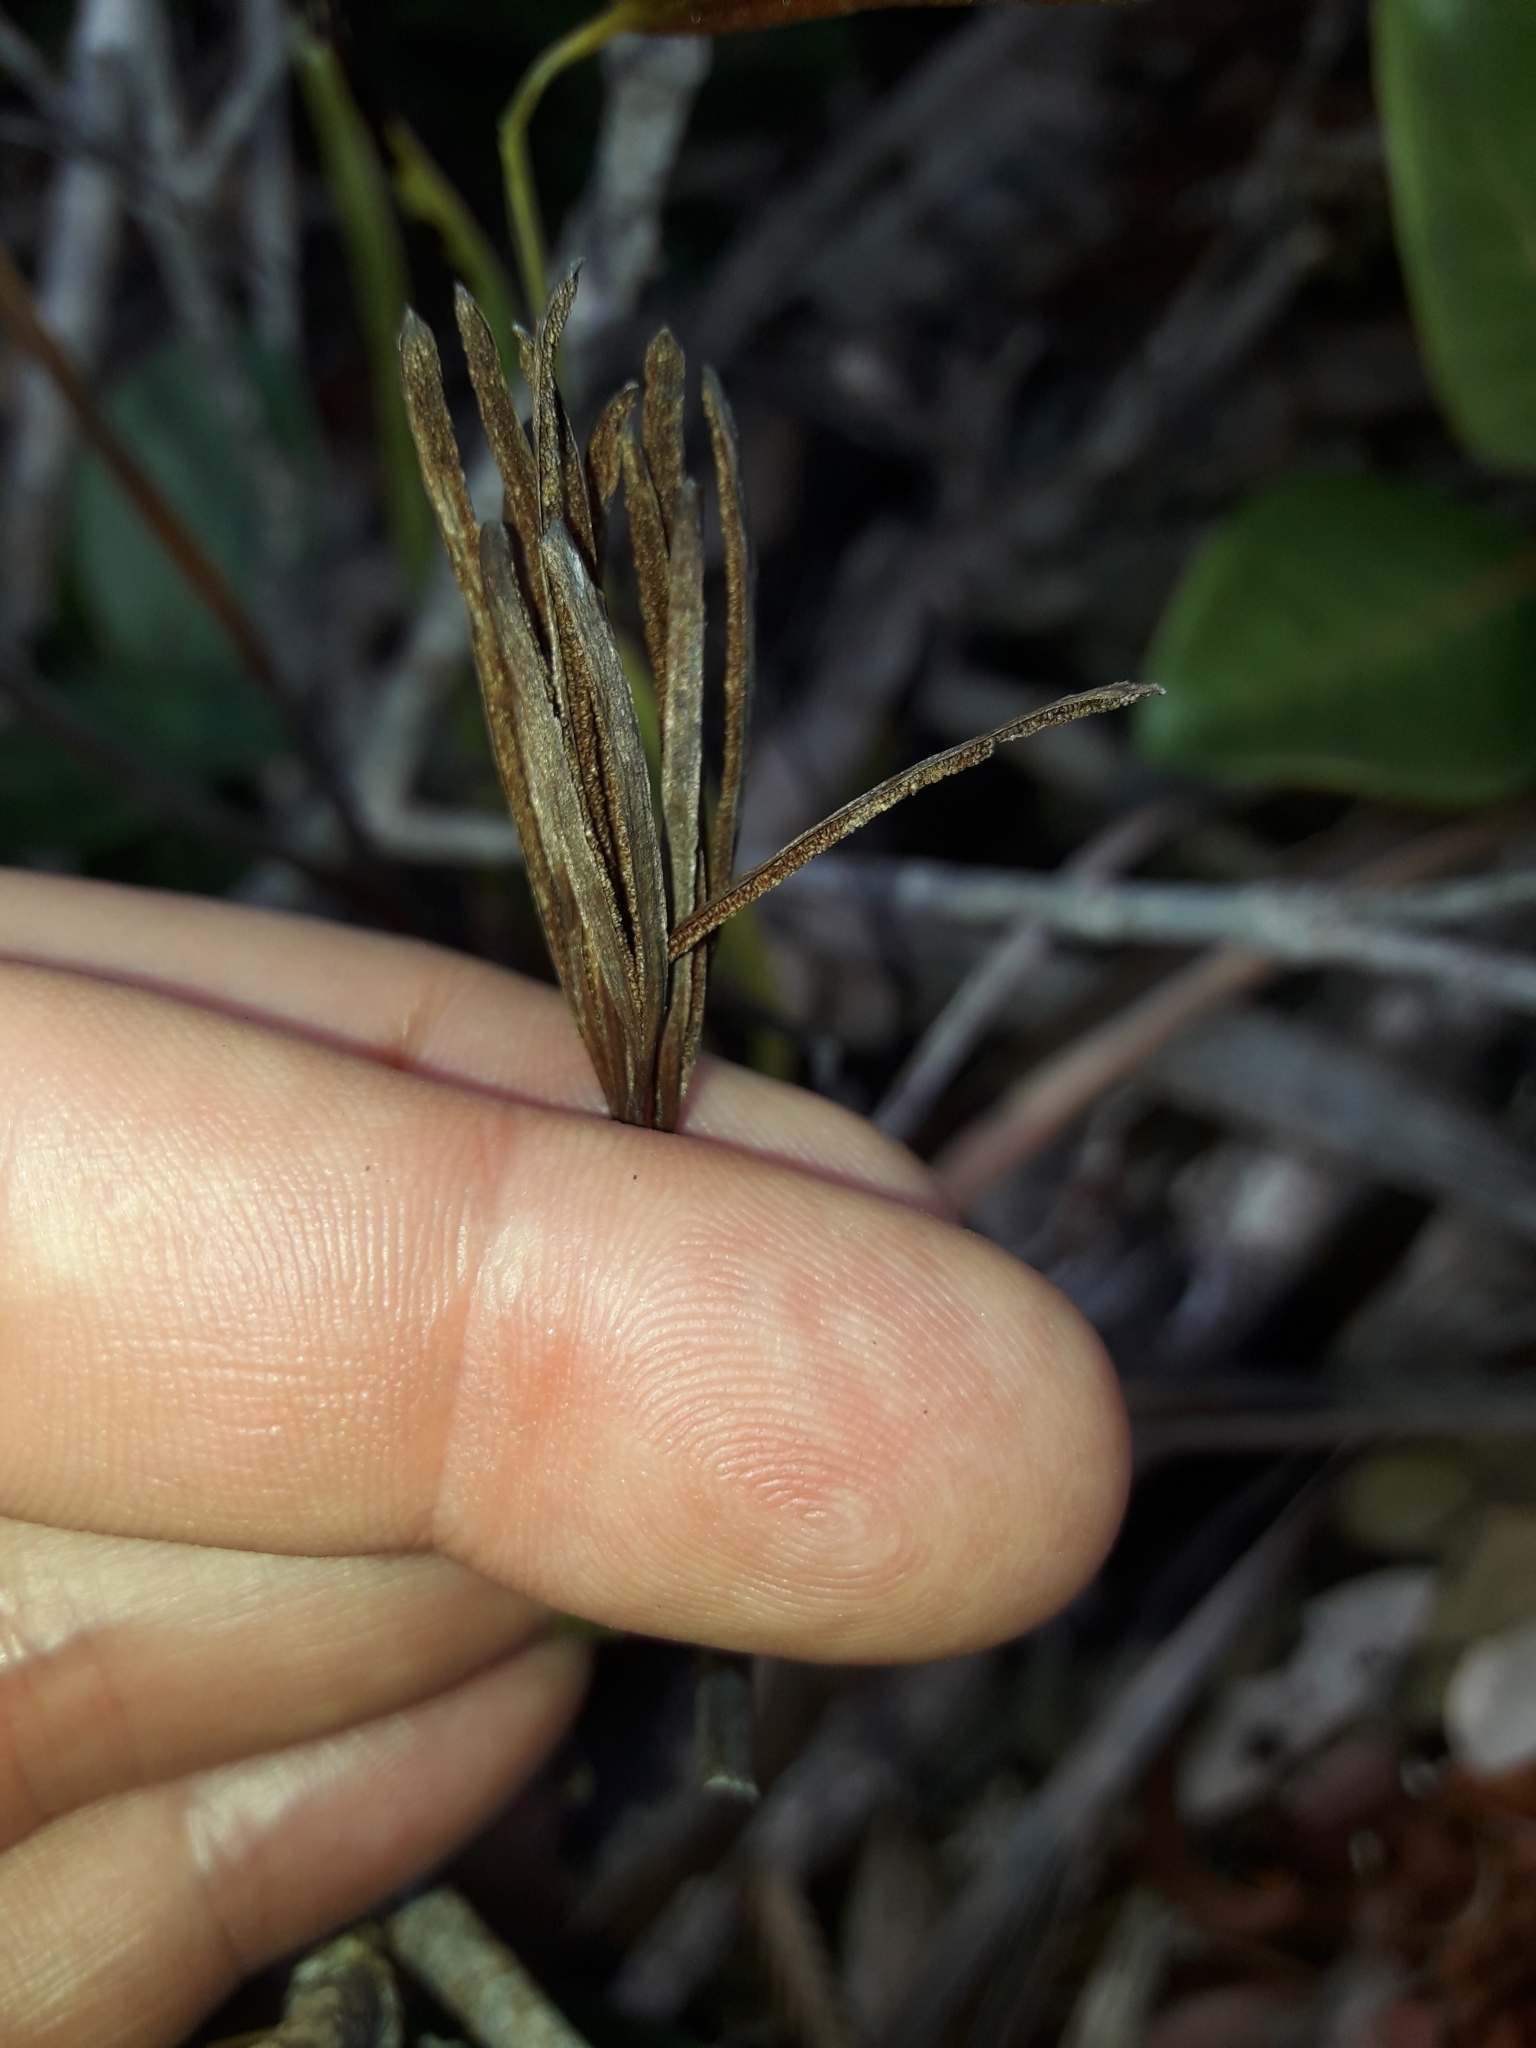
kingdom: Plantae
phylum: Tracheophyta
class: Polypodiopsida
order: Schizaeales
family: Schizaeaceae
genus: Actinostachys
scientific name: Actinostachys melanesica
